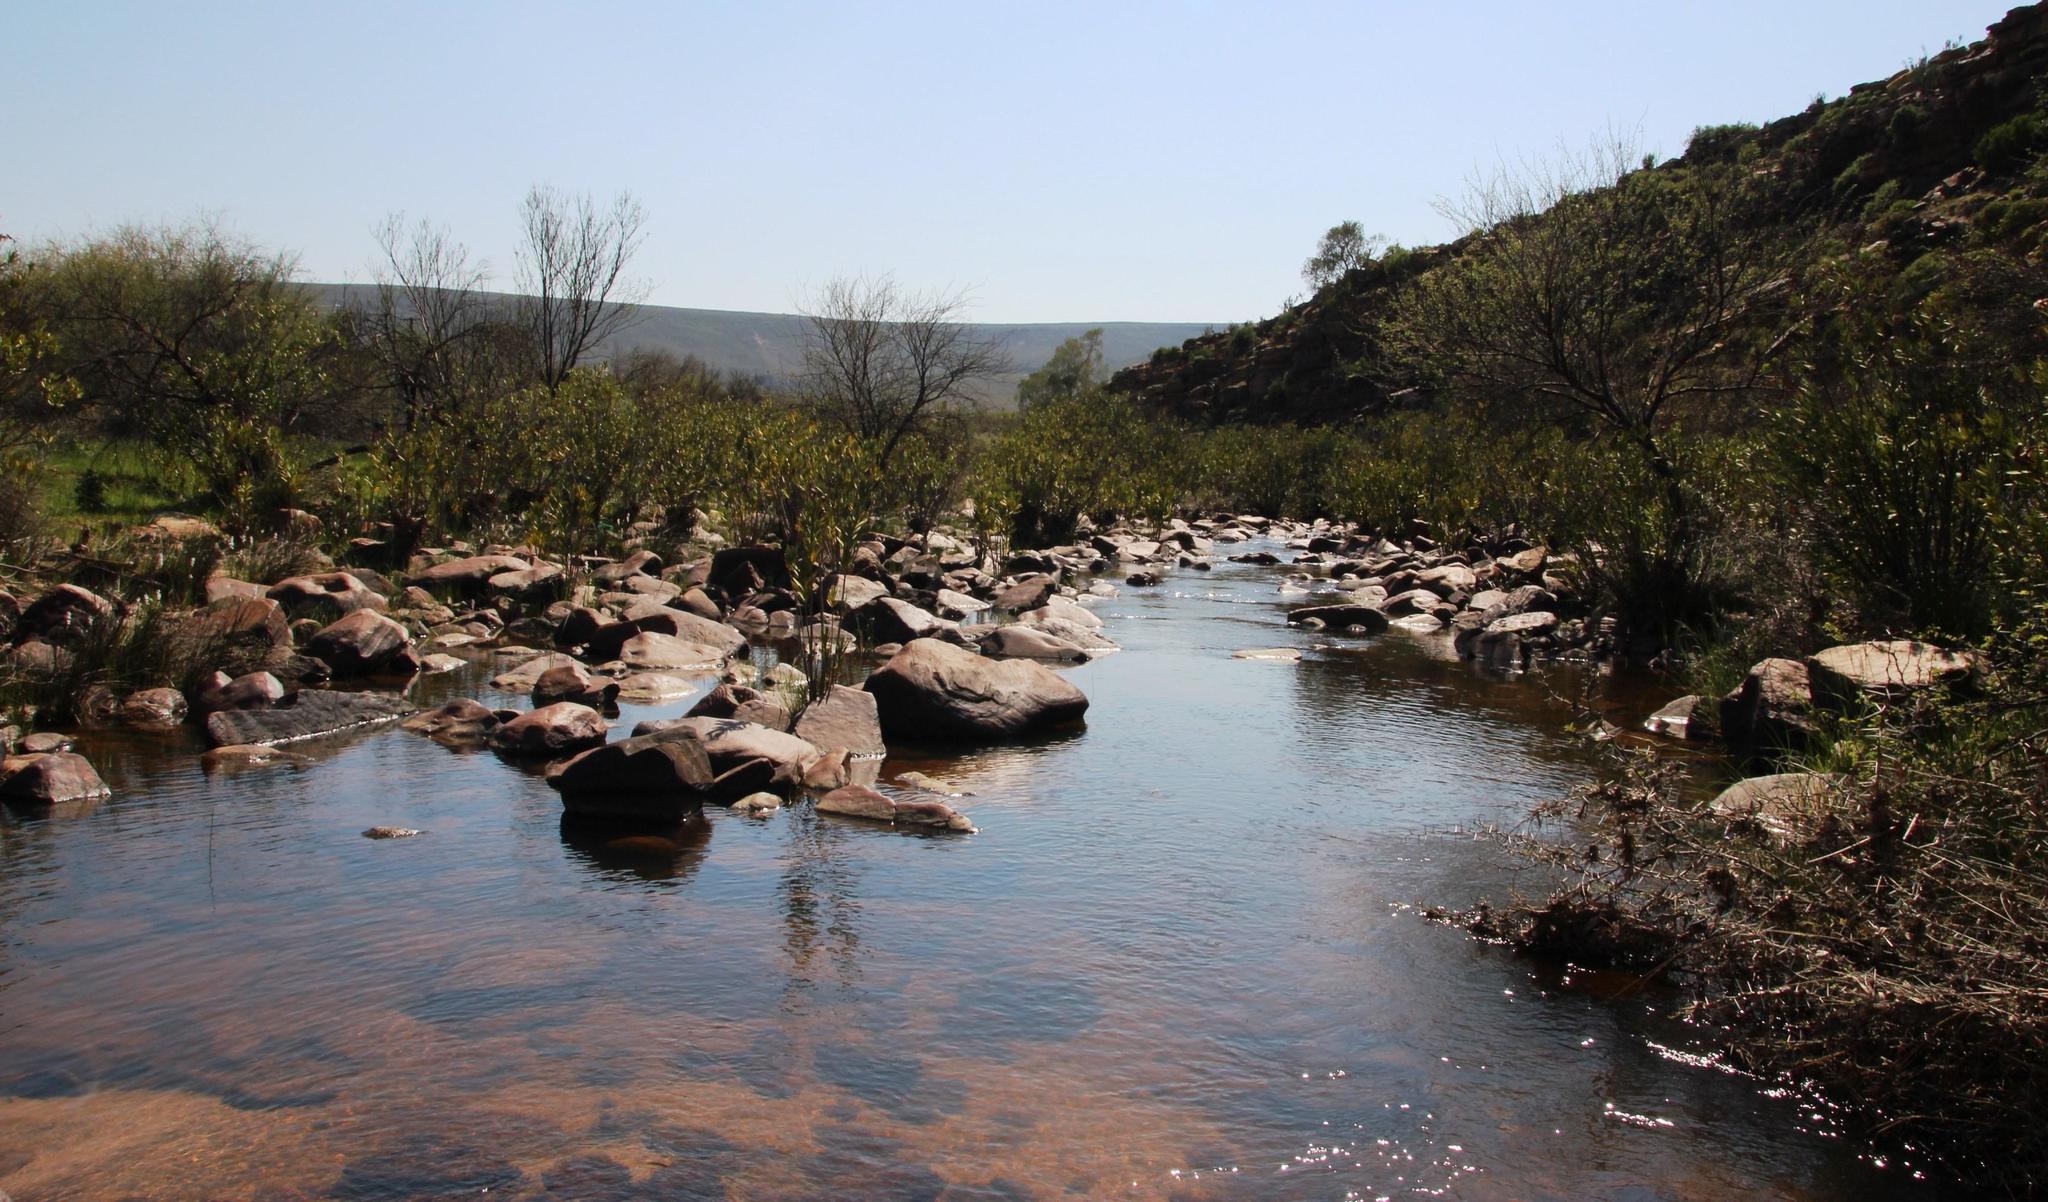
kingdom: Plantae
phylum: Tracheophyta
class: Magnoliopsida
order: Gentianales
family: Apocynaceae
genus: Nerium
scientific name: Nerium oleander
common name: Oleander
